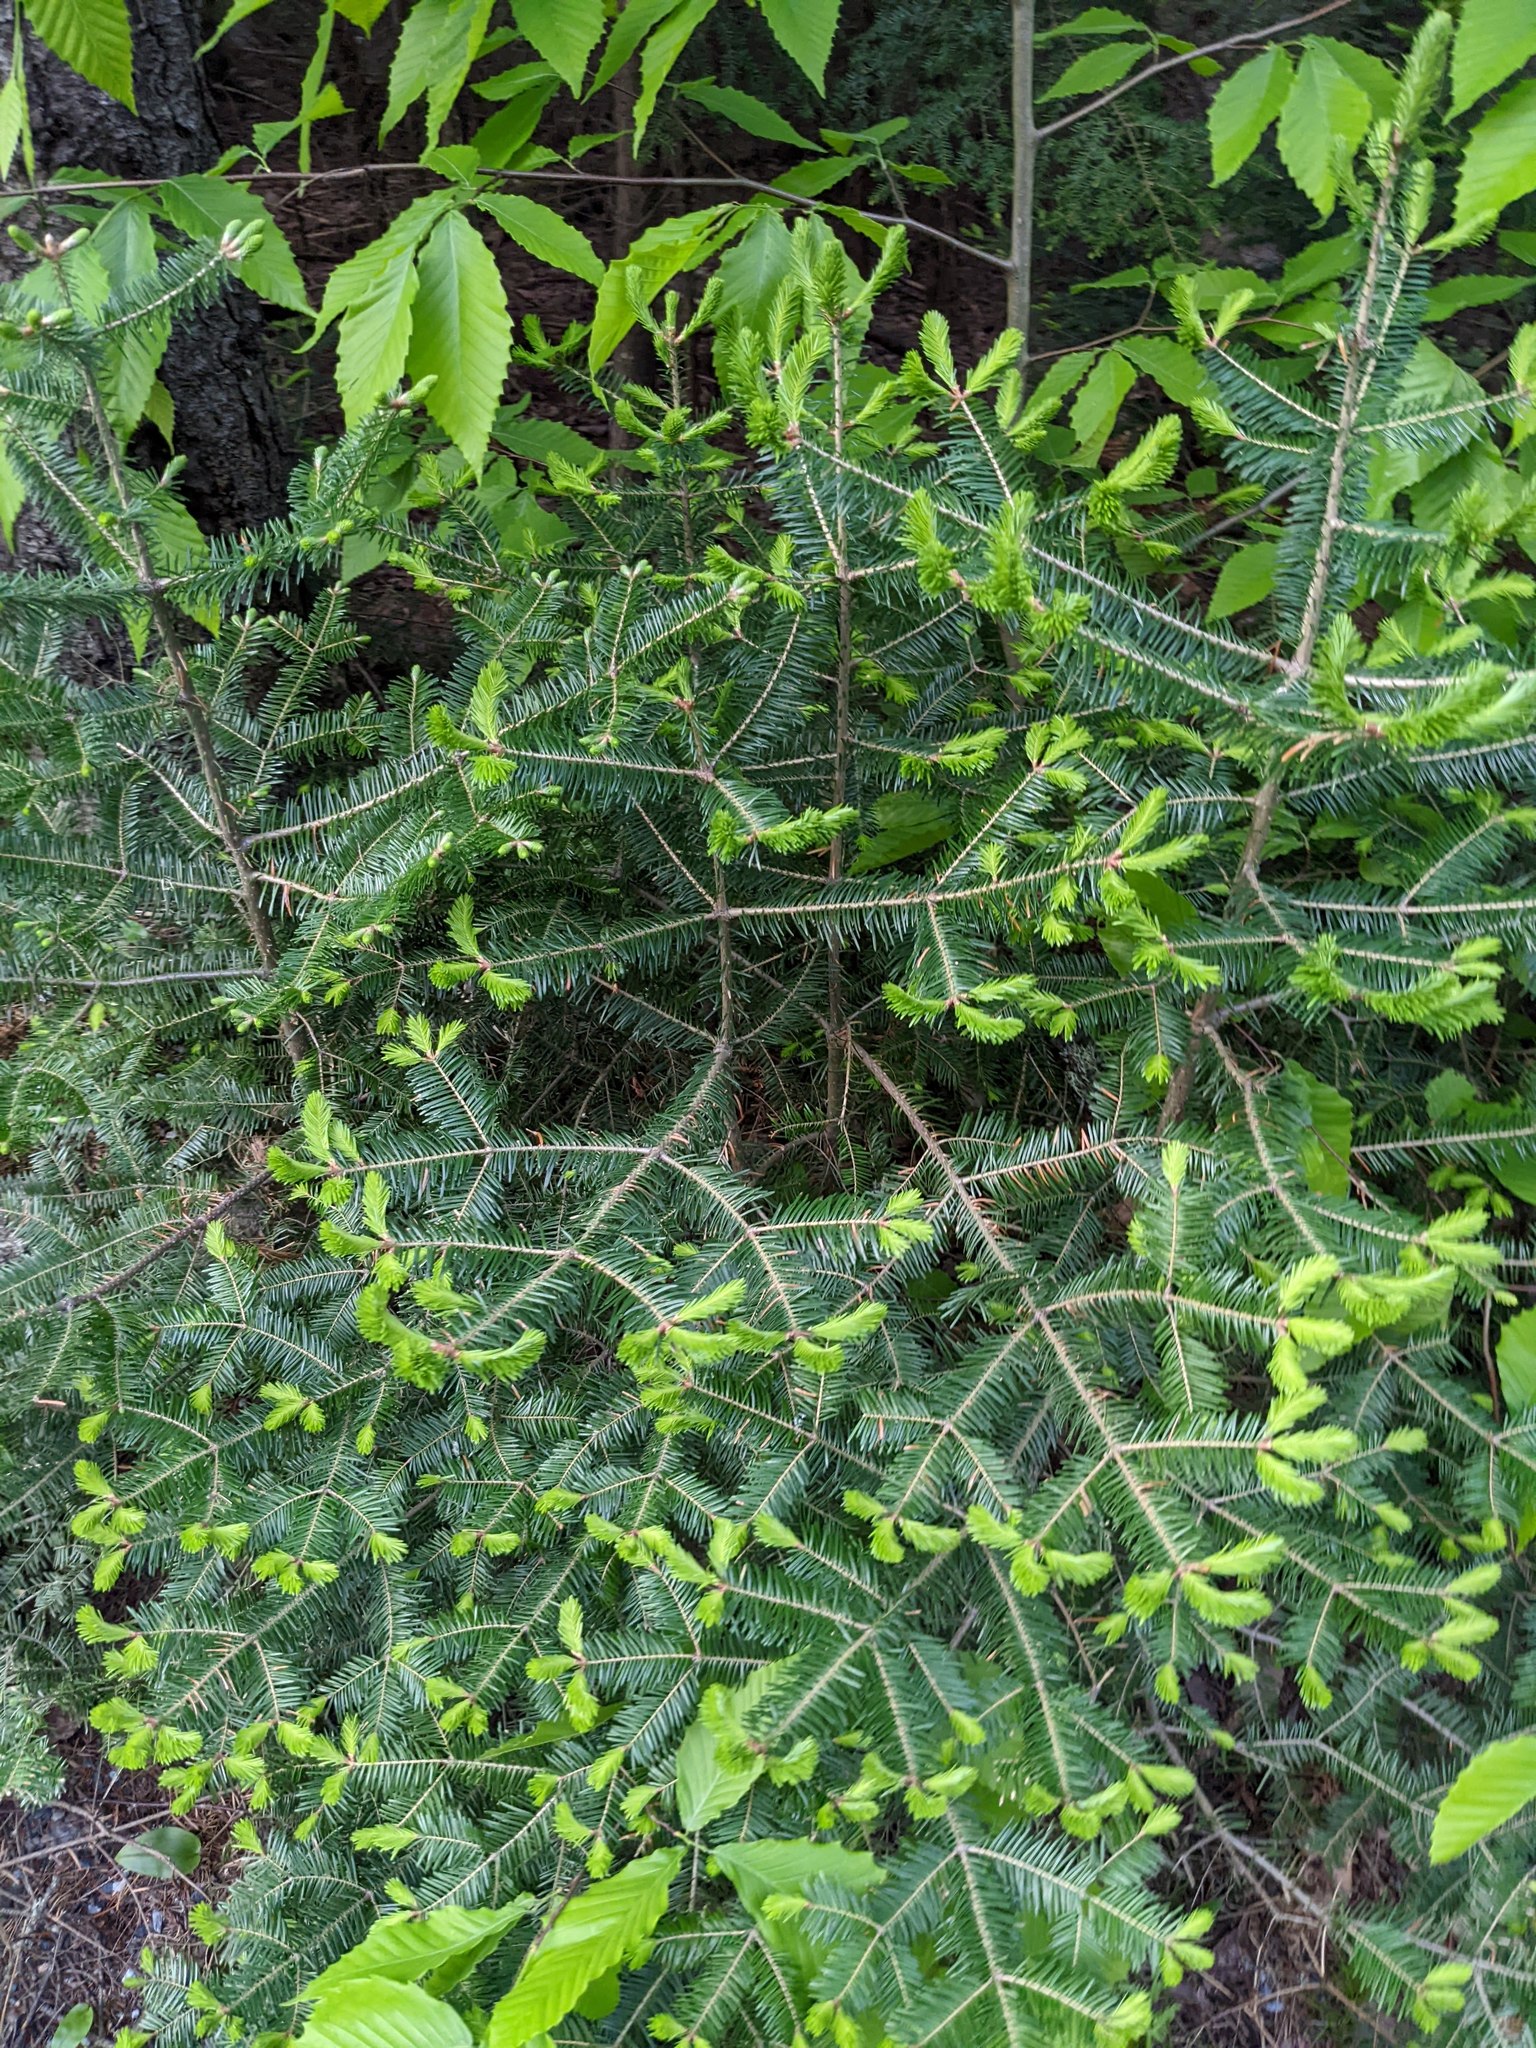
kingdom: Plantae
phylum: Tracheophyta
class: Pinopsida
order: Pinales
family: Pinaceae
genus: Abies
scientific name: Abies balsamea
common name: Balsam fir
